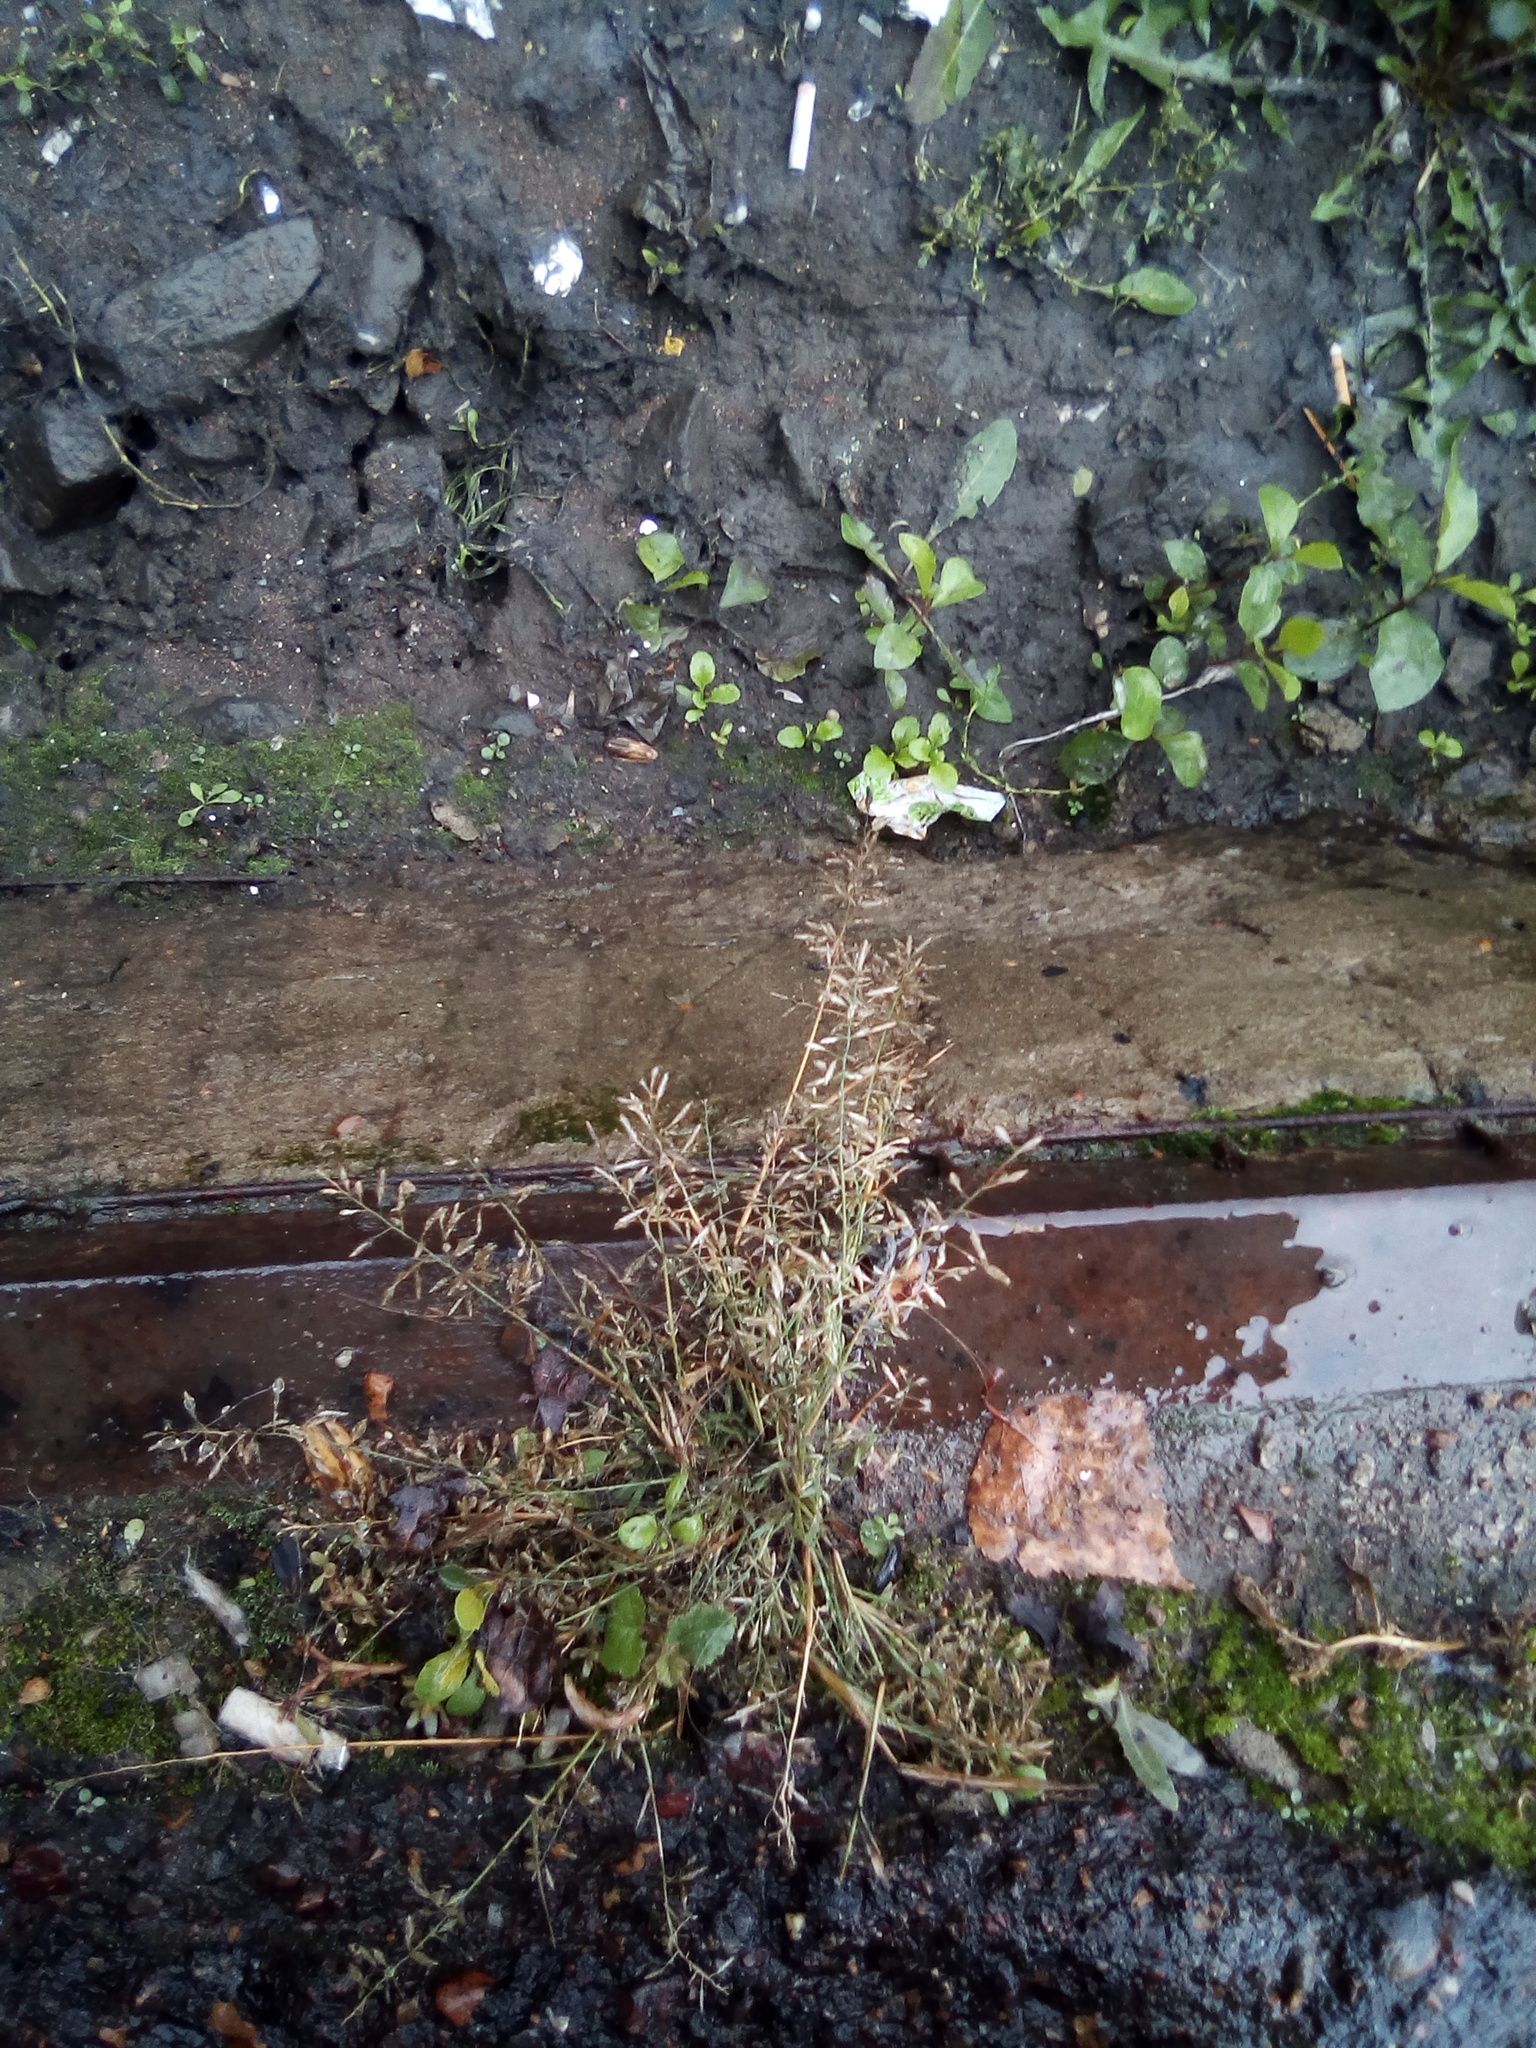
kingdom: Plantae
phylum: Tracheophyta
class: Liliopsida
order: Poales
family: Poaceae
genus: Eragrostis
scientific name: Eragrostis minor
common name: Small love-grass
